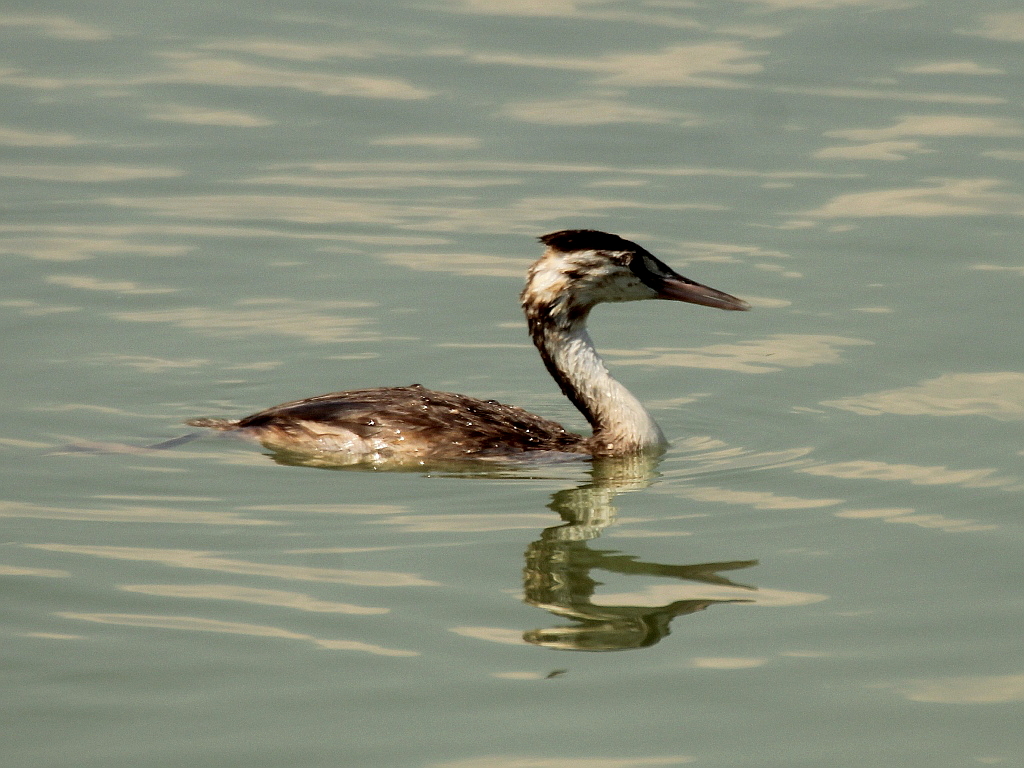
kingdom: Animalia
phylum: Chordata
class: Aves
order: Podicipediformes
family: Podicipedidae
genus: Podiceps
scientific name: Podiceps cristatus
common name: Great crested grebe
